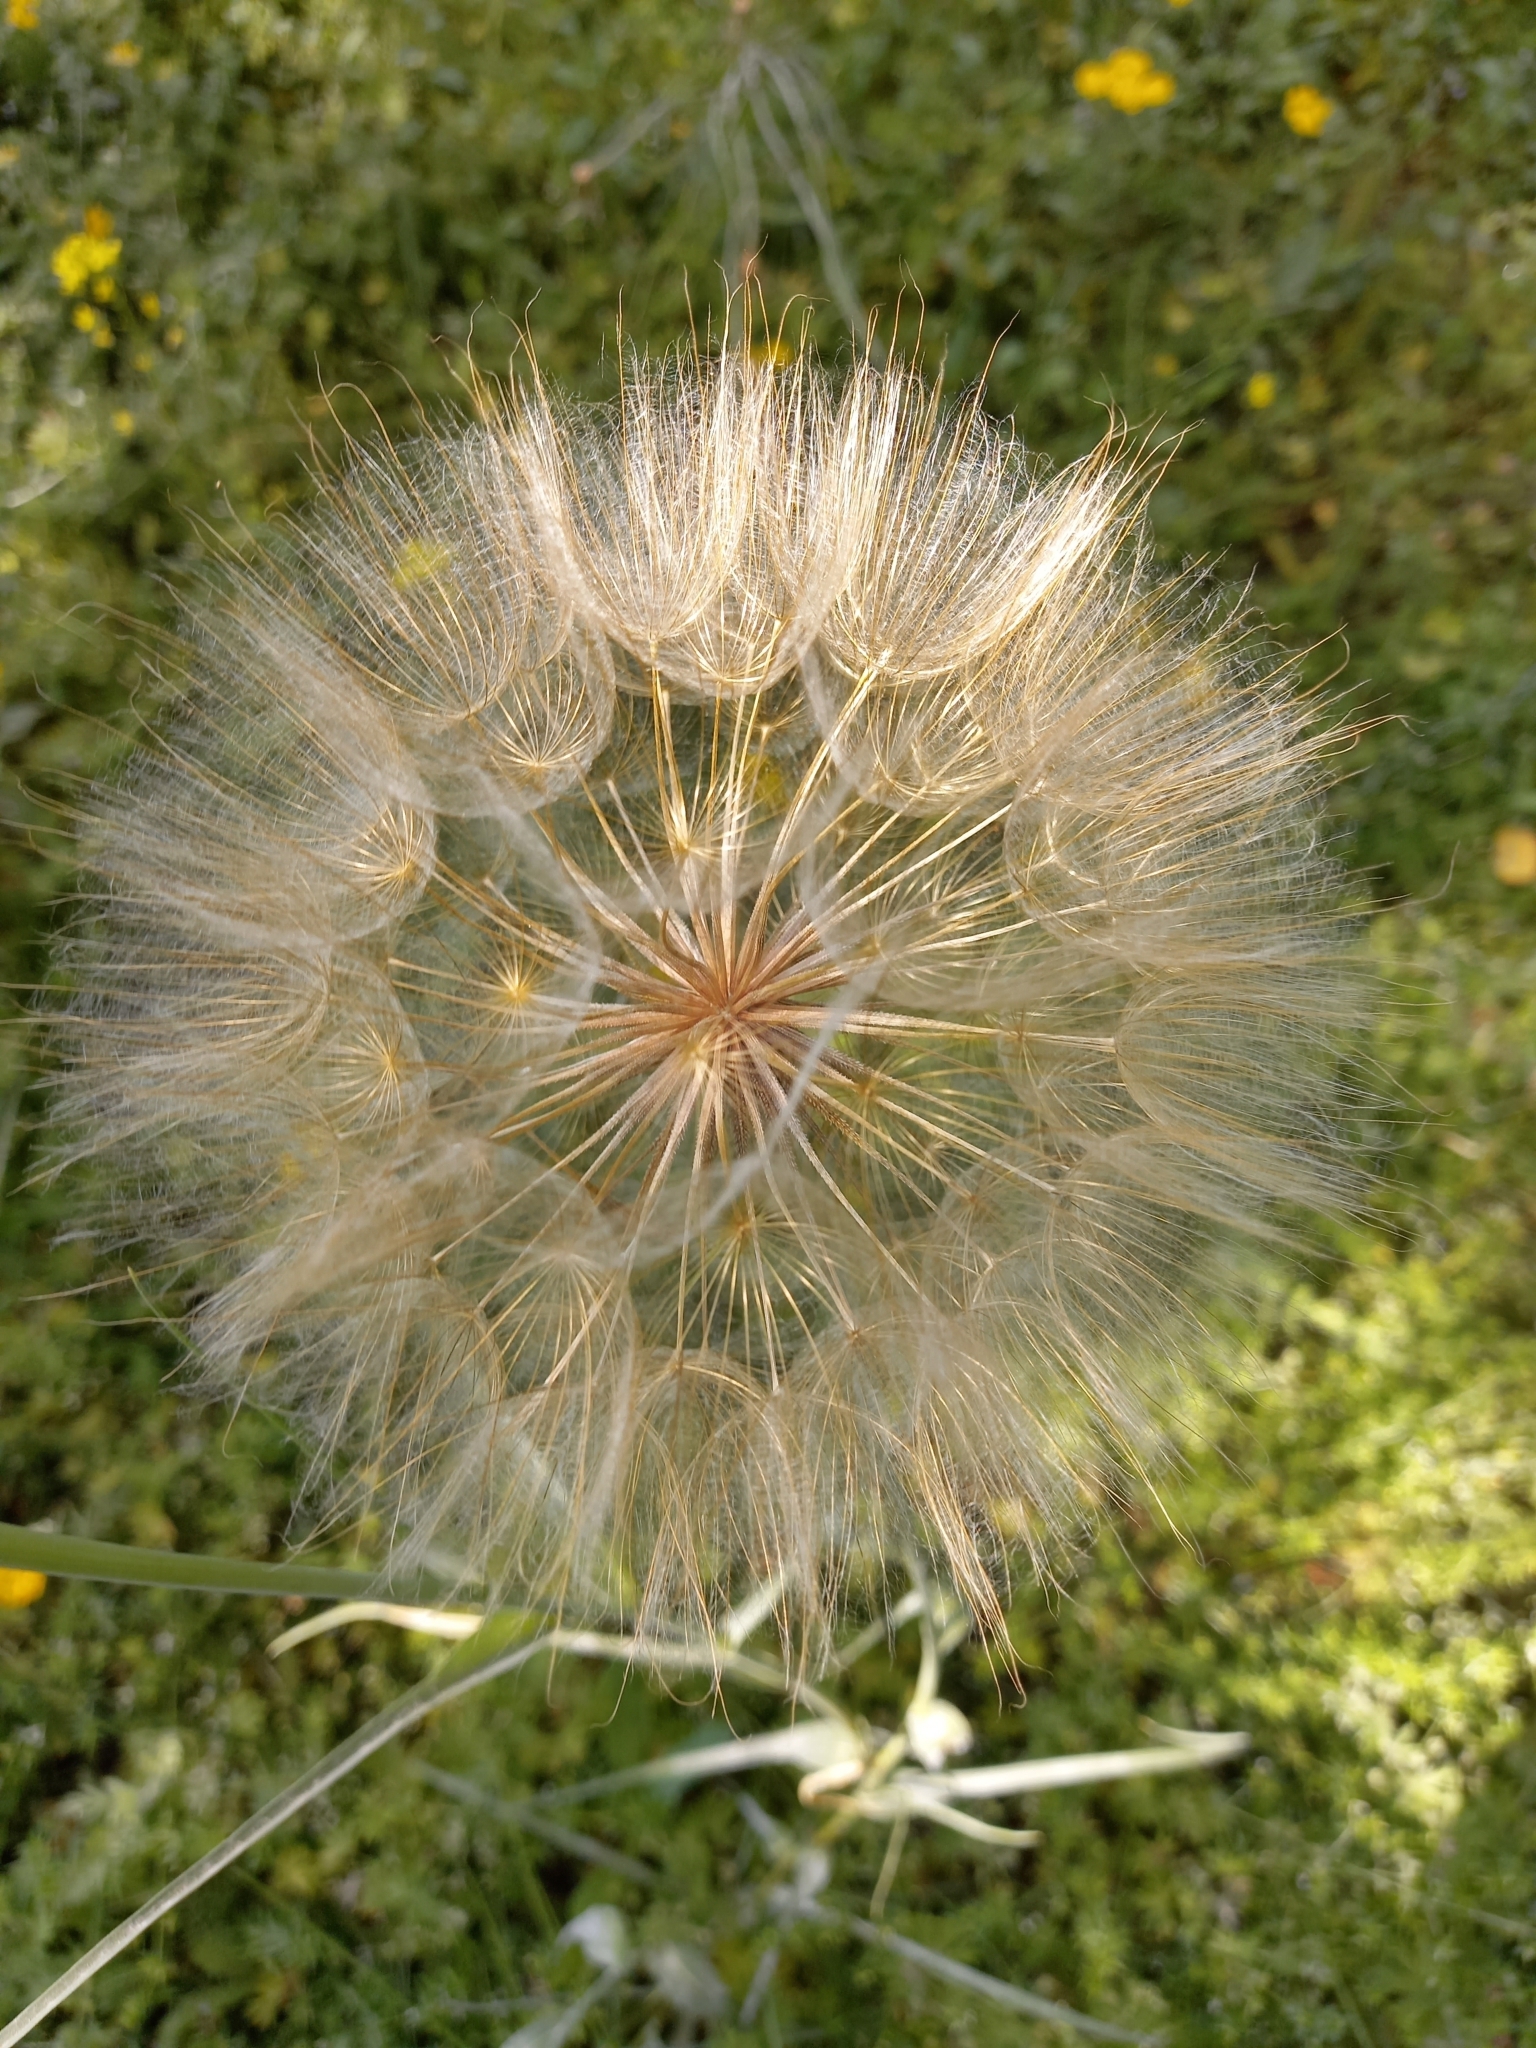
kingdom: Plantae
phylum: Tracheophyta
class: Magnoliopsida
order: Asterales
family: Asteraceae
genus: Tragopogon
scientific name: Tragopogon dubius
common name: Yellow salsify
